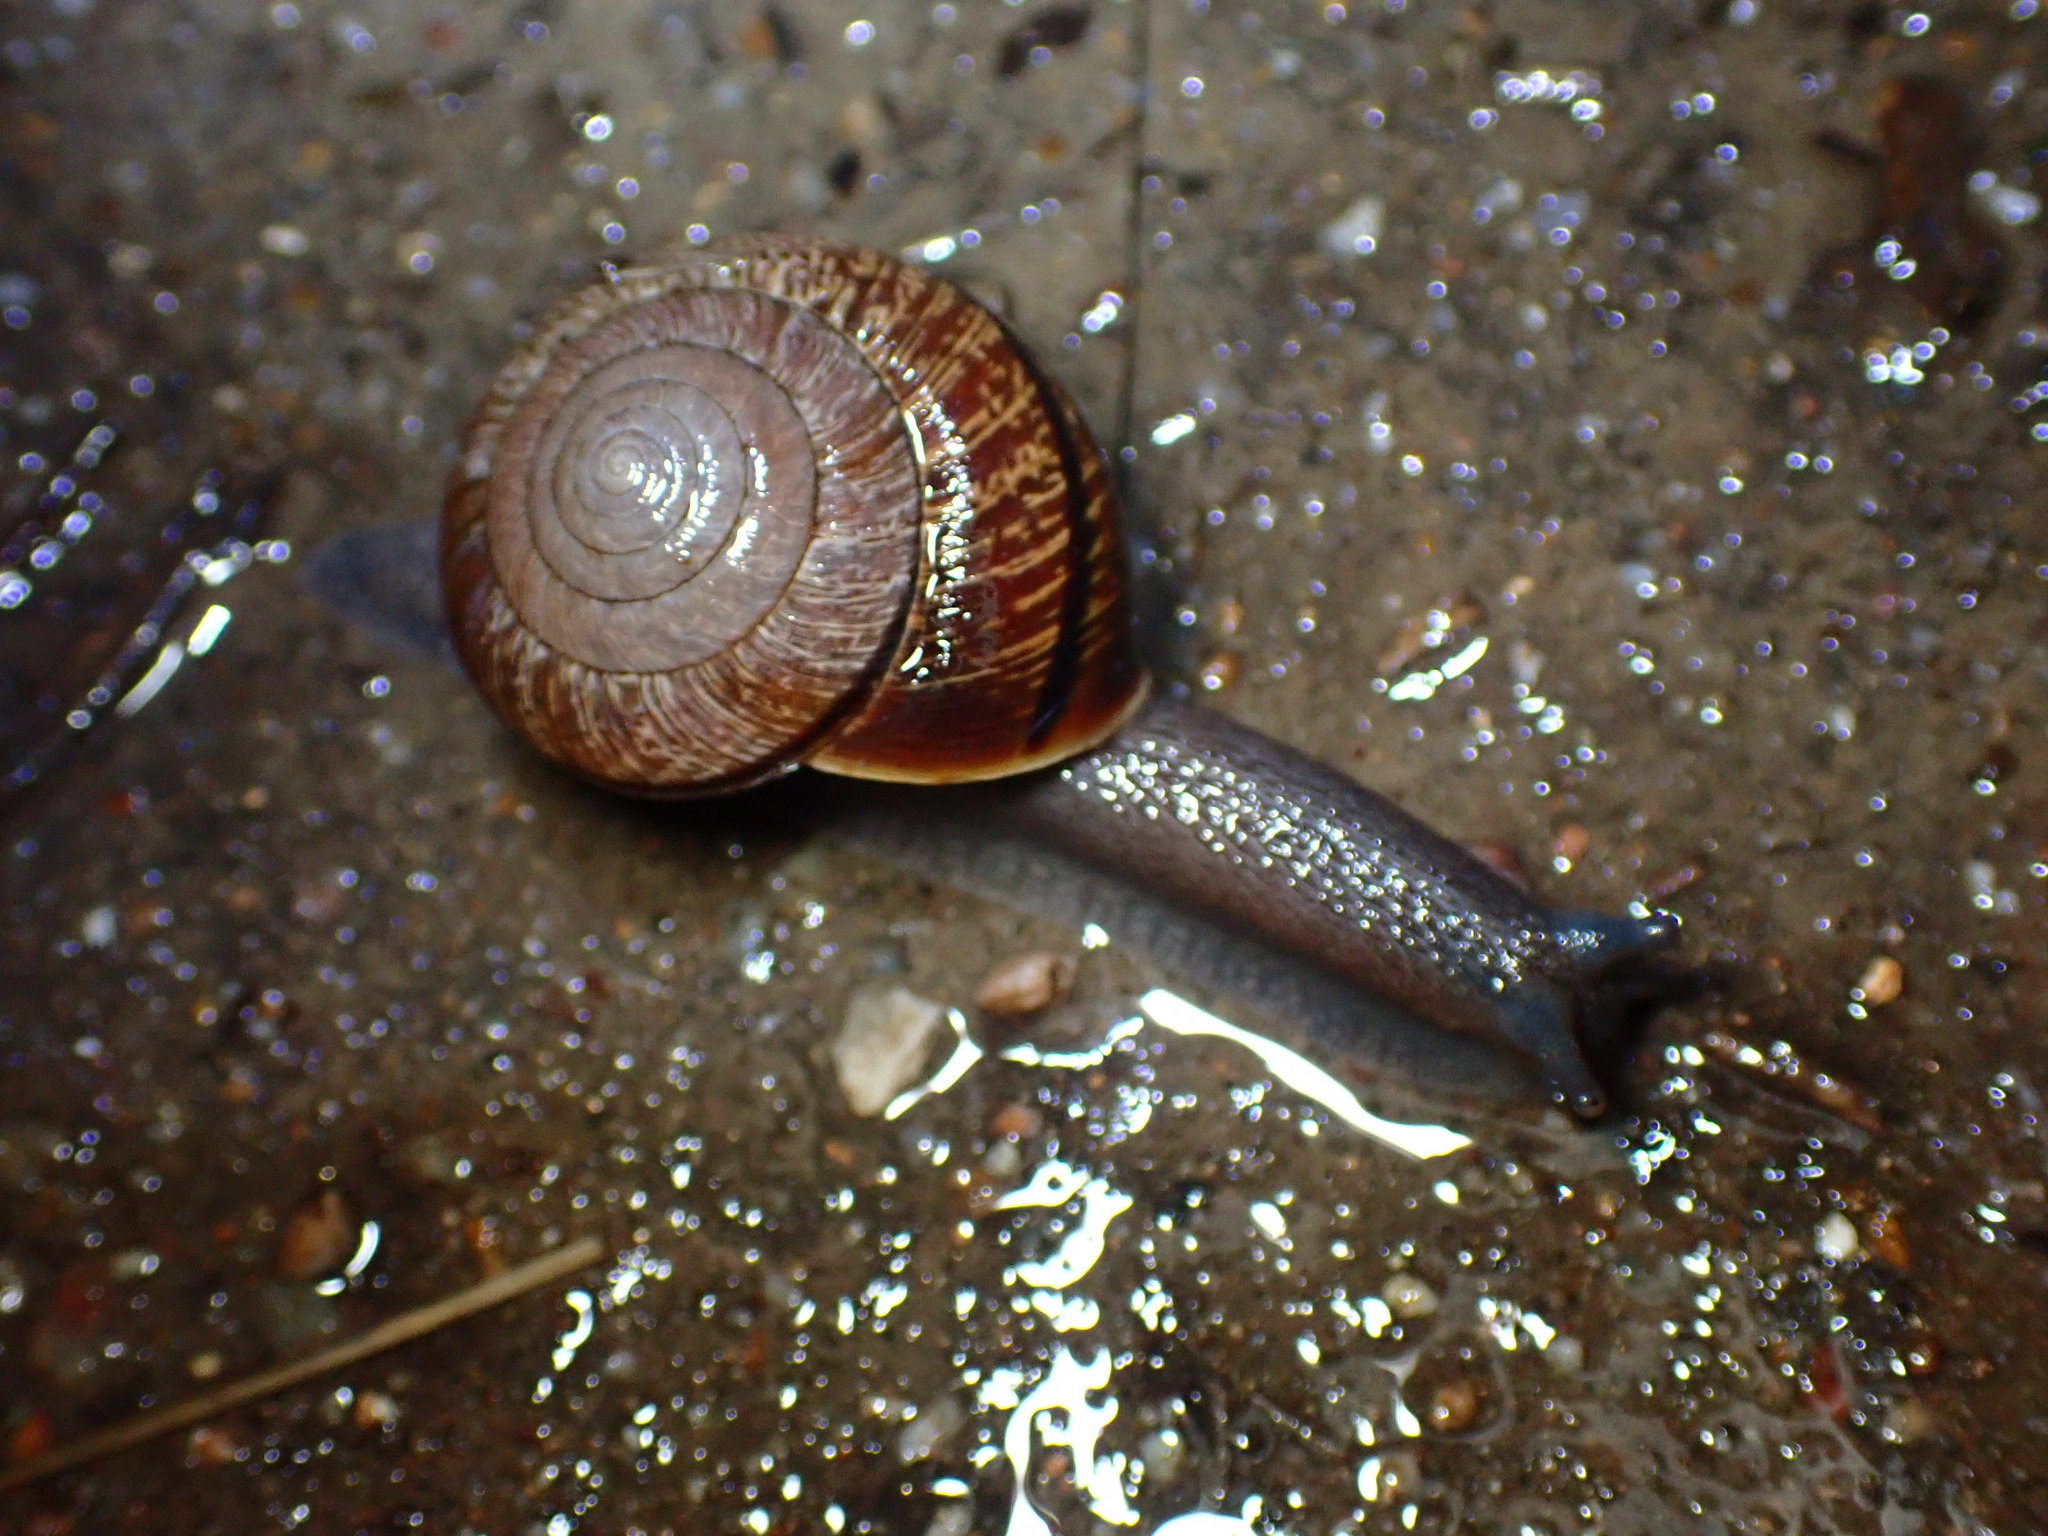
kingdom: Animalia
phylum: Mollusca
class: Gastropoda
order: Stylommatophora
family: Xanthonychidae
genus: Helminthoglypta
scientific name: Helminthoglypta arrosa
